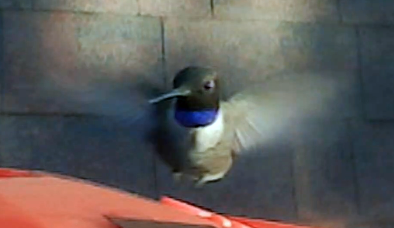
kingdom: Animalia
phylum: Chordata
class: Aves
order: Apodiformes
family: Trochilidae
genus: Archilochus
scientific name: Archilochus alexandri
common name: Black-chinned hummingbird
